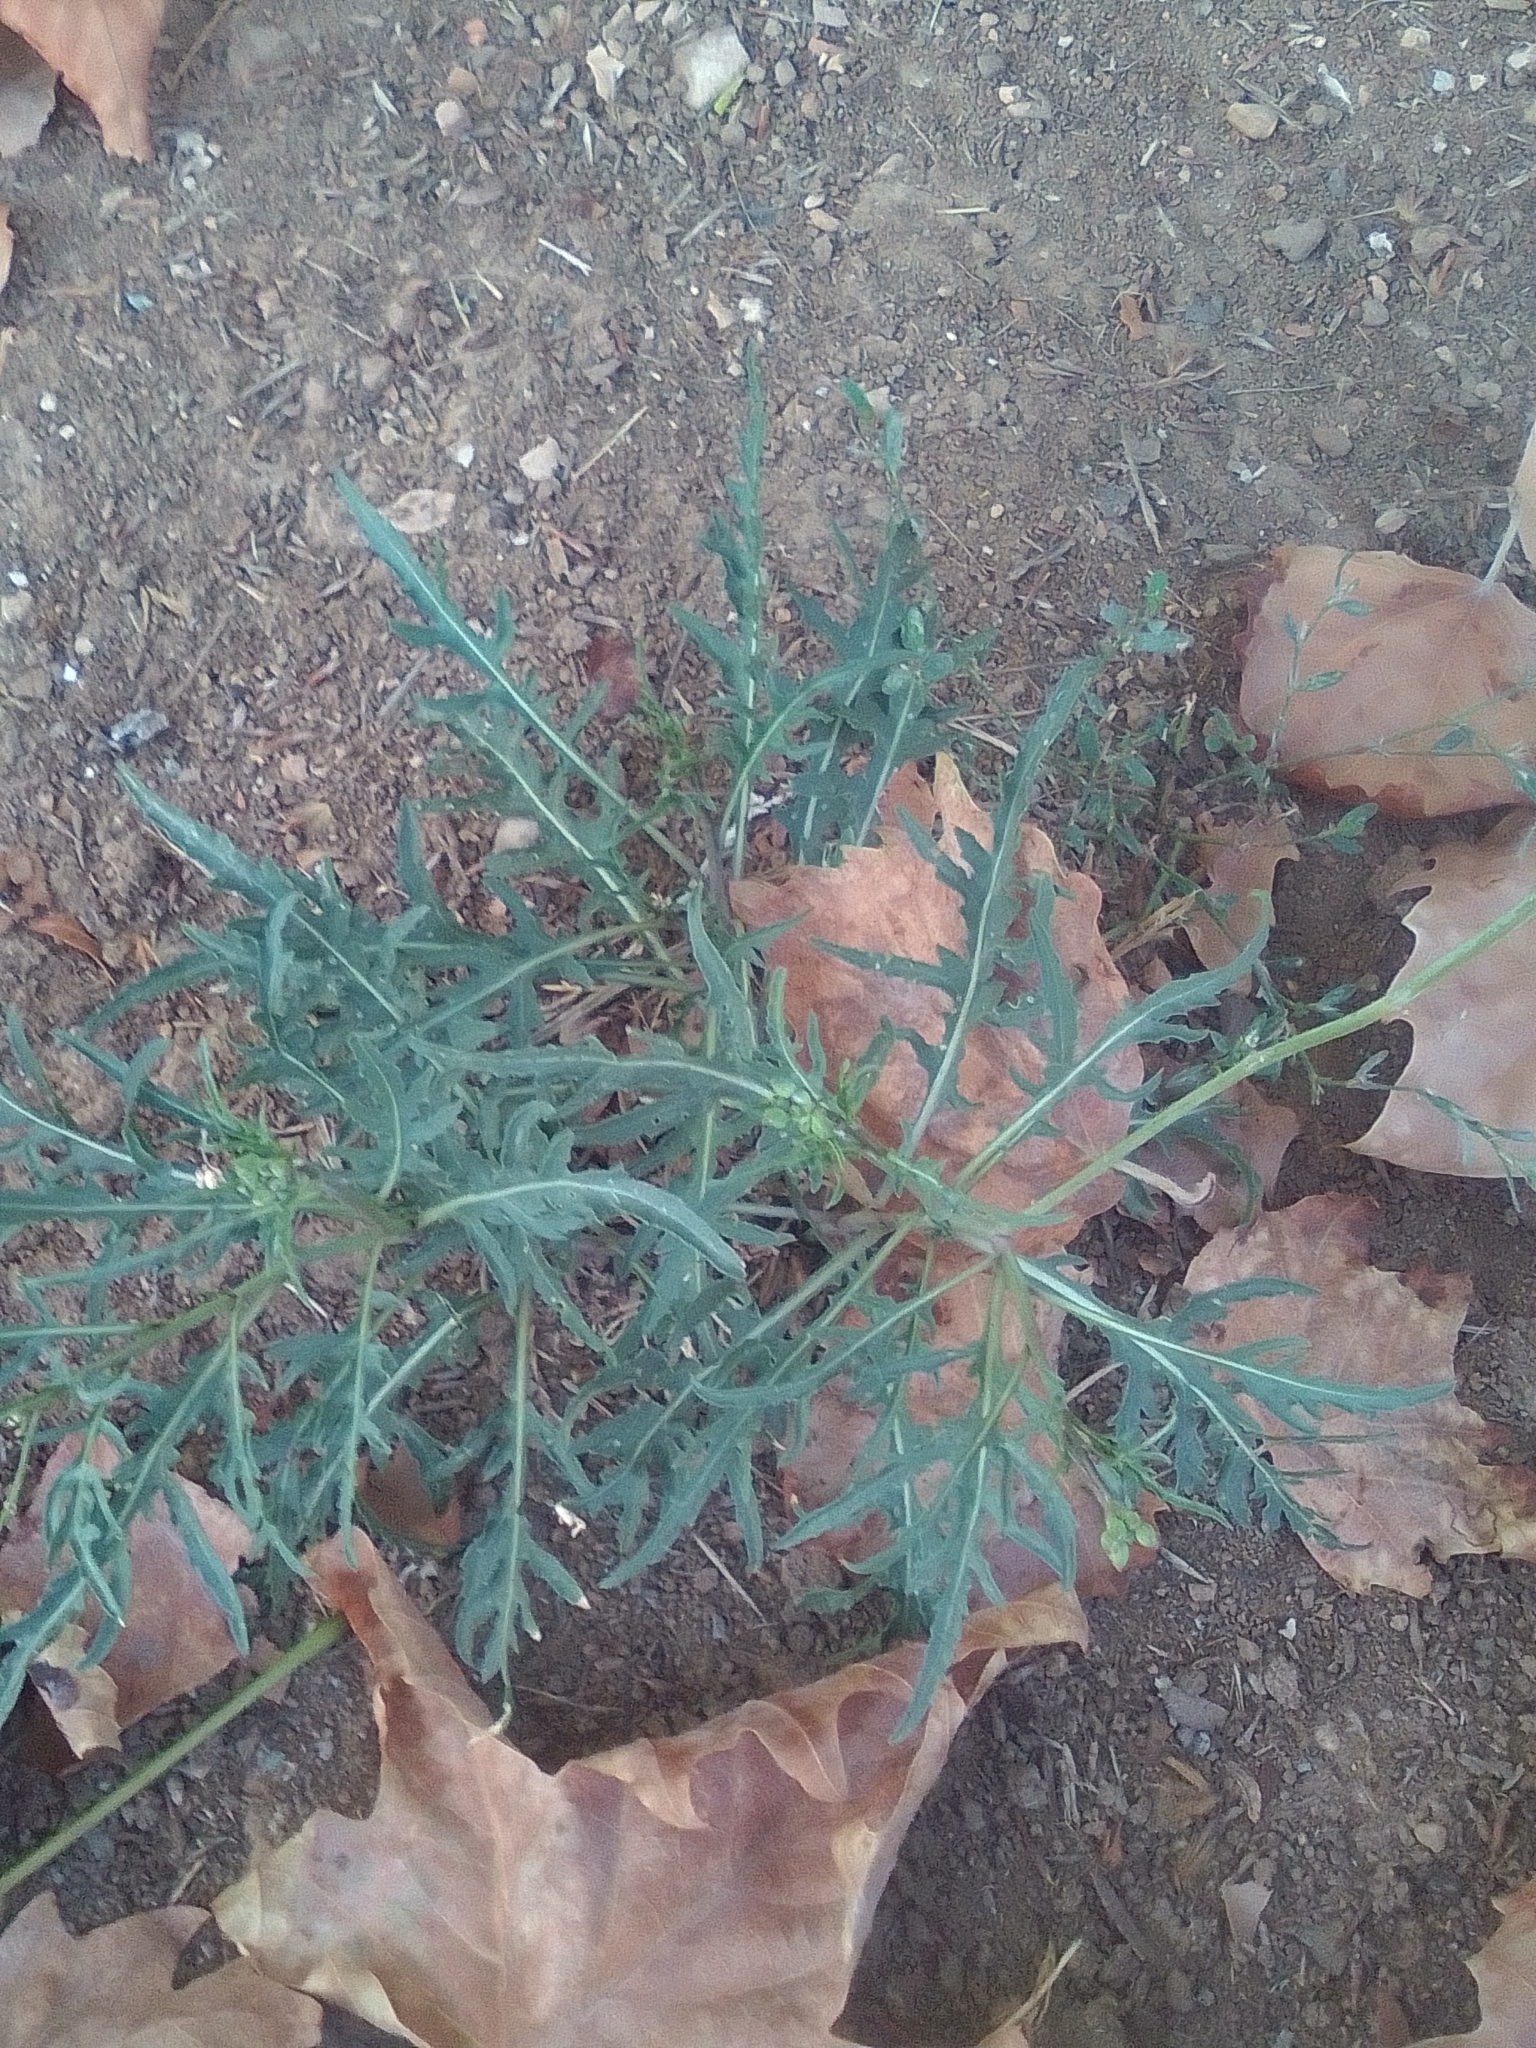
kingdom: Plantae
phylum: Tracheophyta
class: Magnoliopsida
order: Brassicales
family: Brassicaceae
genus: Diplotaxis
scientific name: Diplotaxis tenuifolia
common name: Perennial wall-rocket
